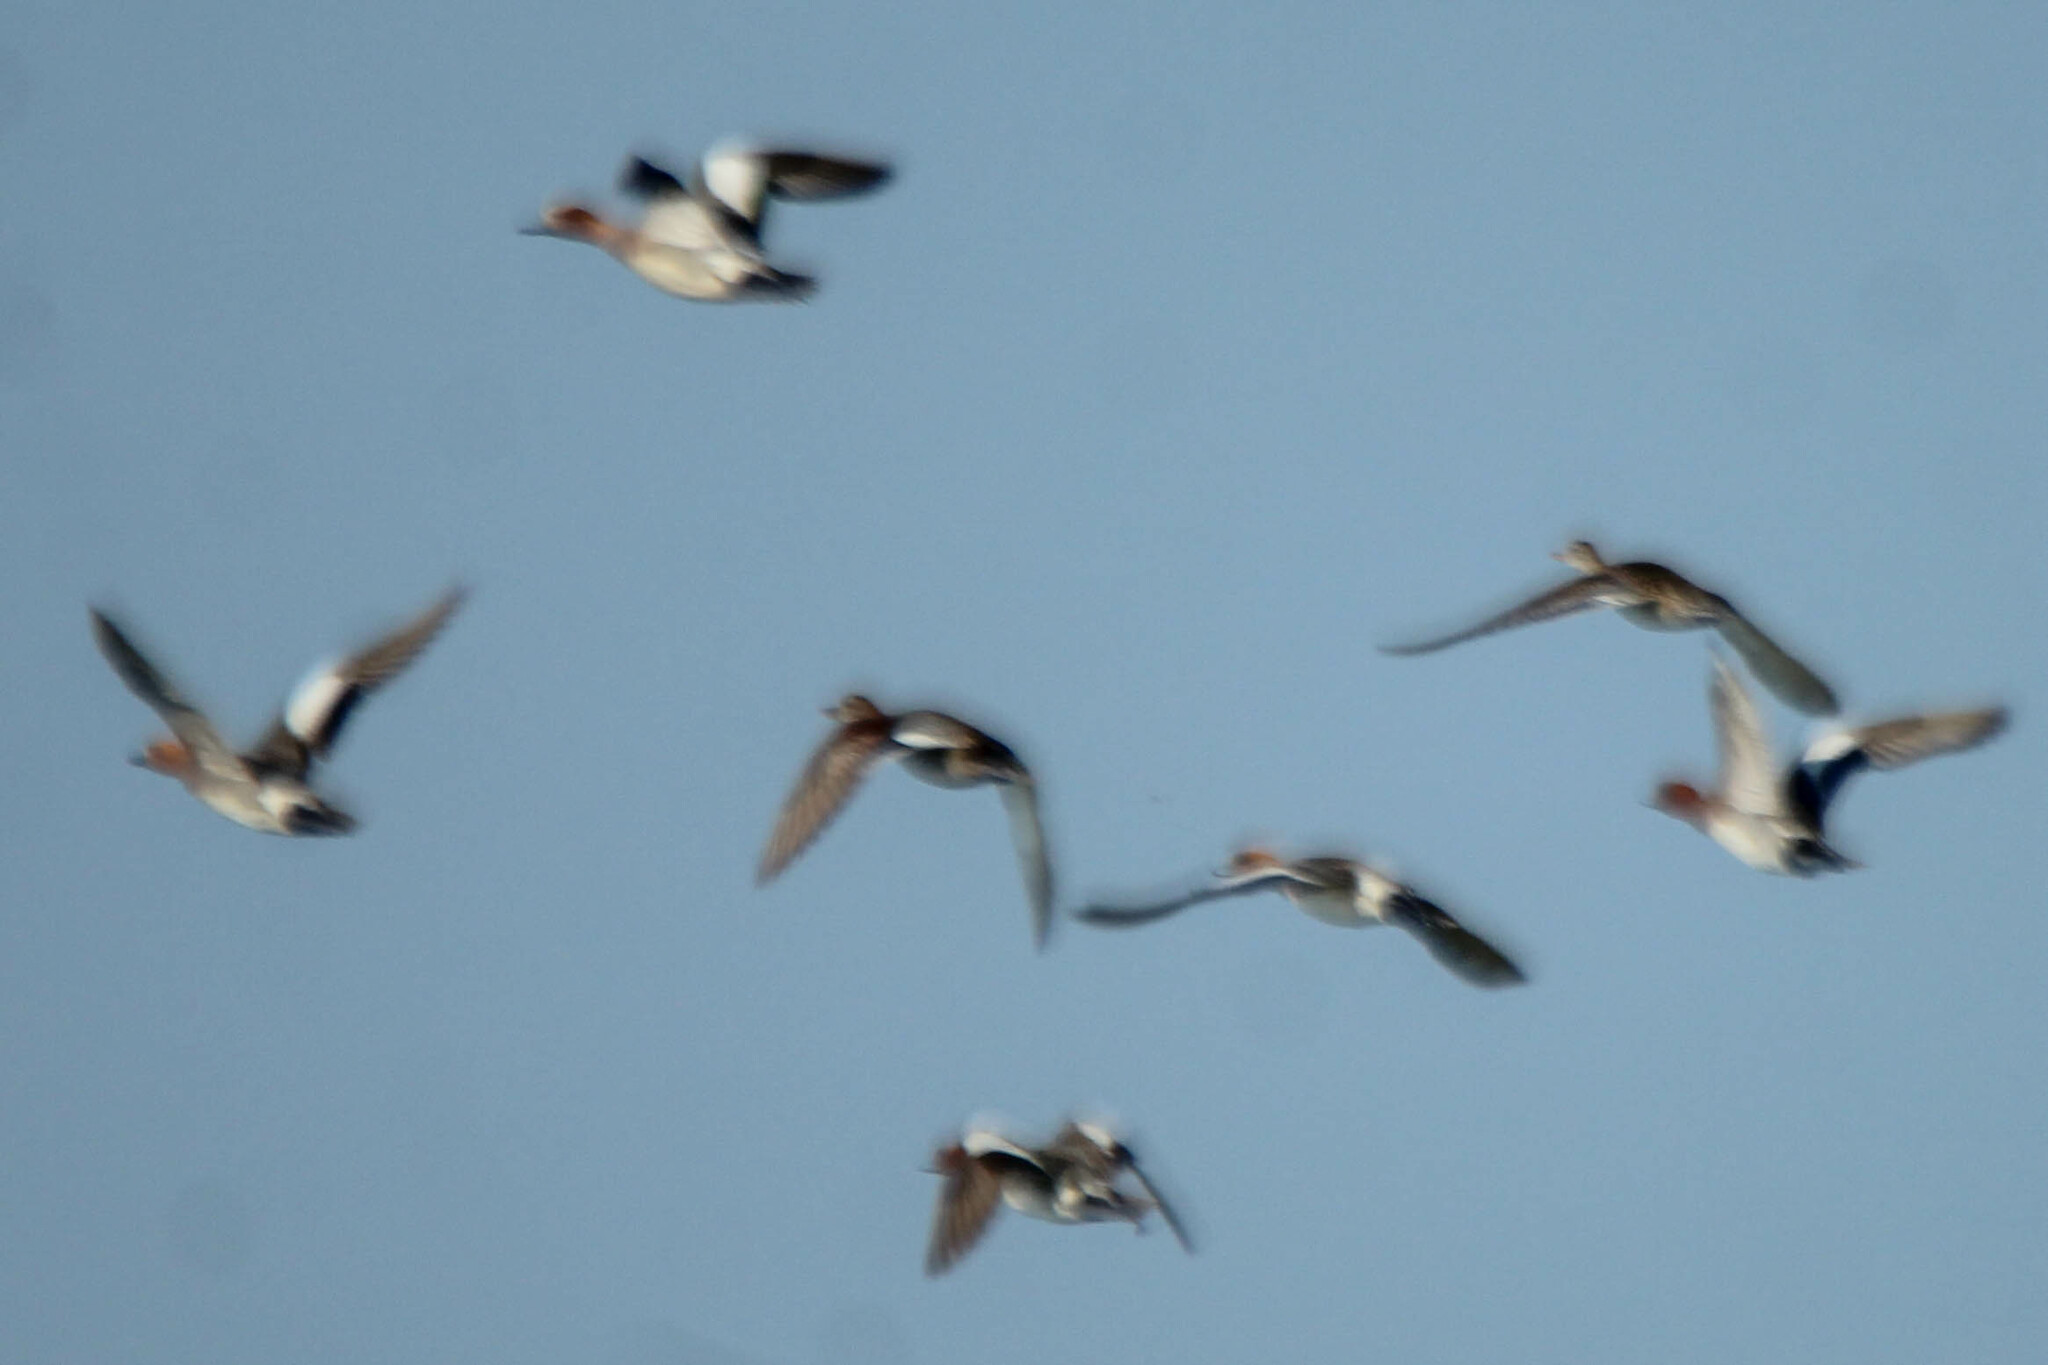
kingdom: Animalia
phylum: Chordata
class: Aves
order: Anseriformes
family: Anatidae
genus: Mareca
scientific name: Mareca penelope
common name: Eurasian wigeon
